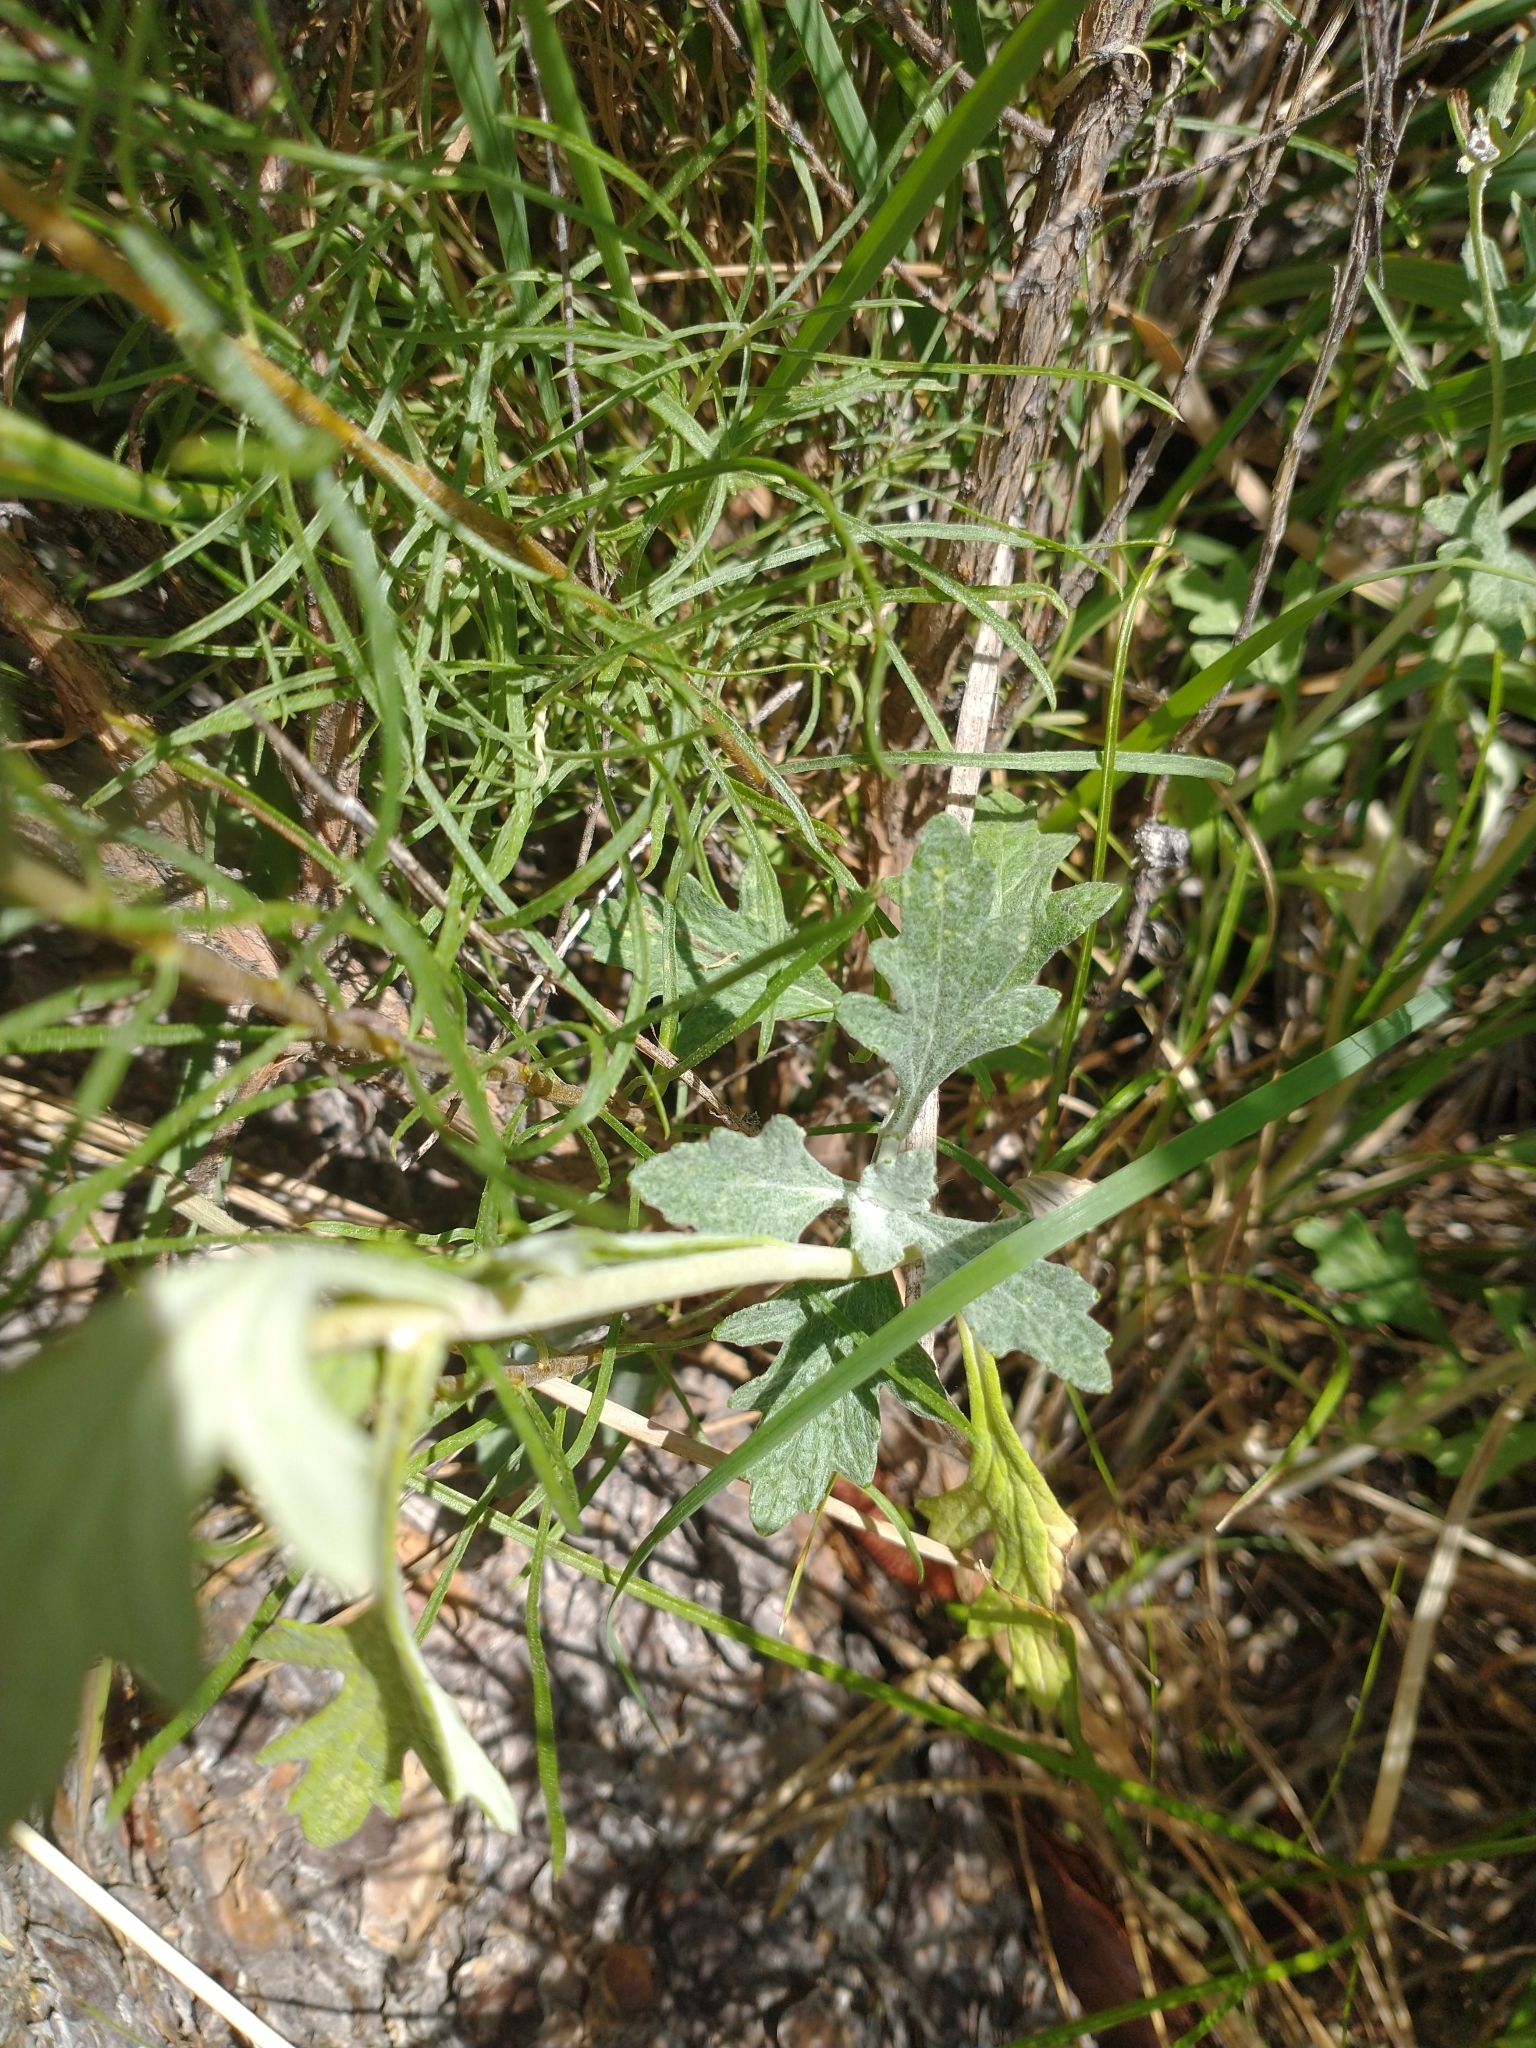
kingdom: Plantae
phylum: Tracheophyta
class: Magnoliopsida
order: Asterales
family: Asteraceae
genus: Eriophyllum
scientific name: Eriophyllum lanatum
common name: Common woolly-sunflower
